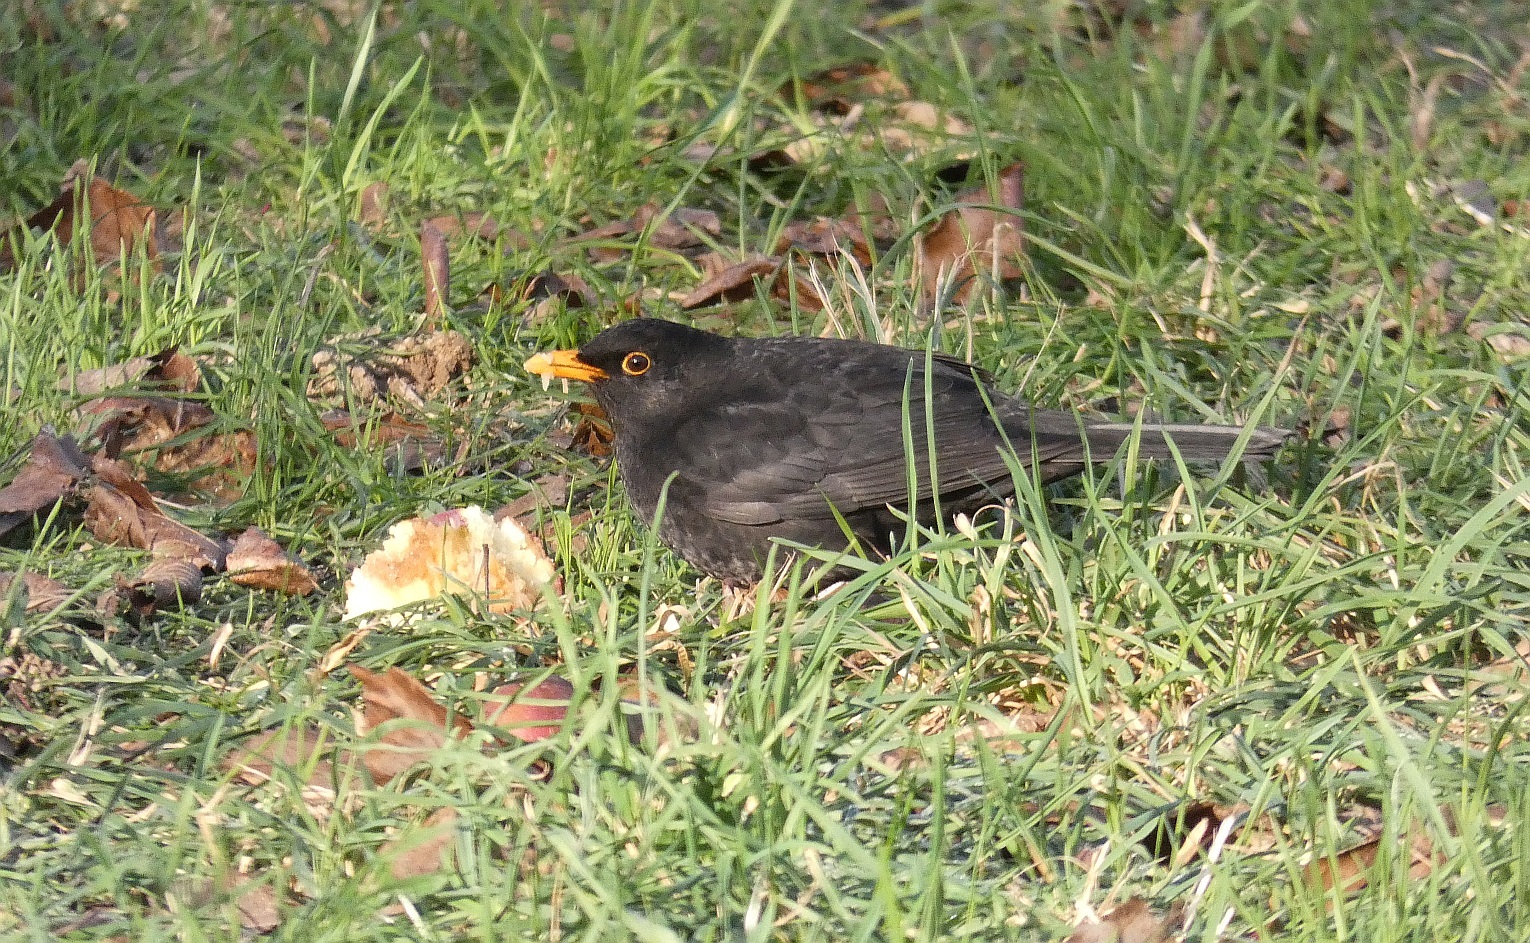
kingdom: Animalia
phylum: Chordata
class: Aves
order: Passeriformes
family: Turdidae
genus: Turdus
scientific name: Turdus merula
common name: Common blackbird
